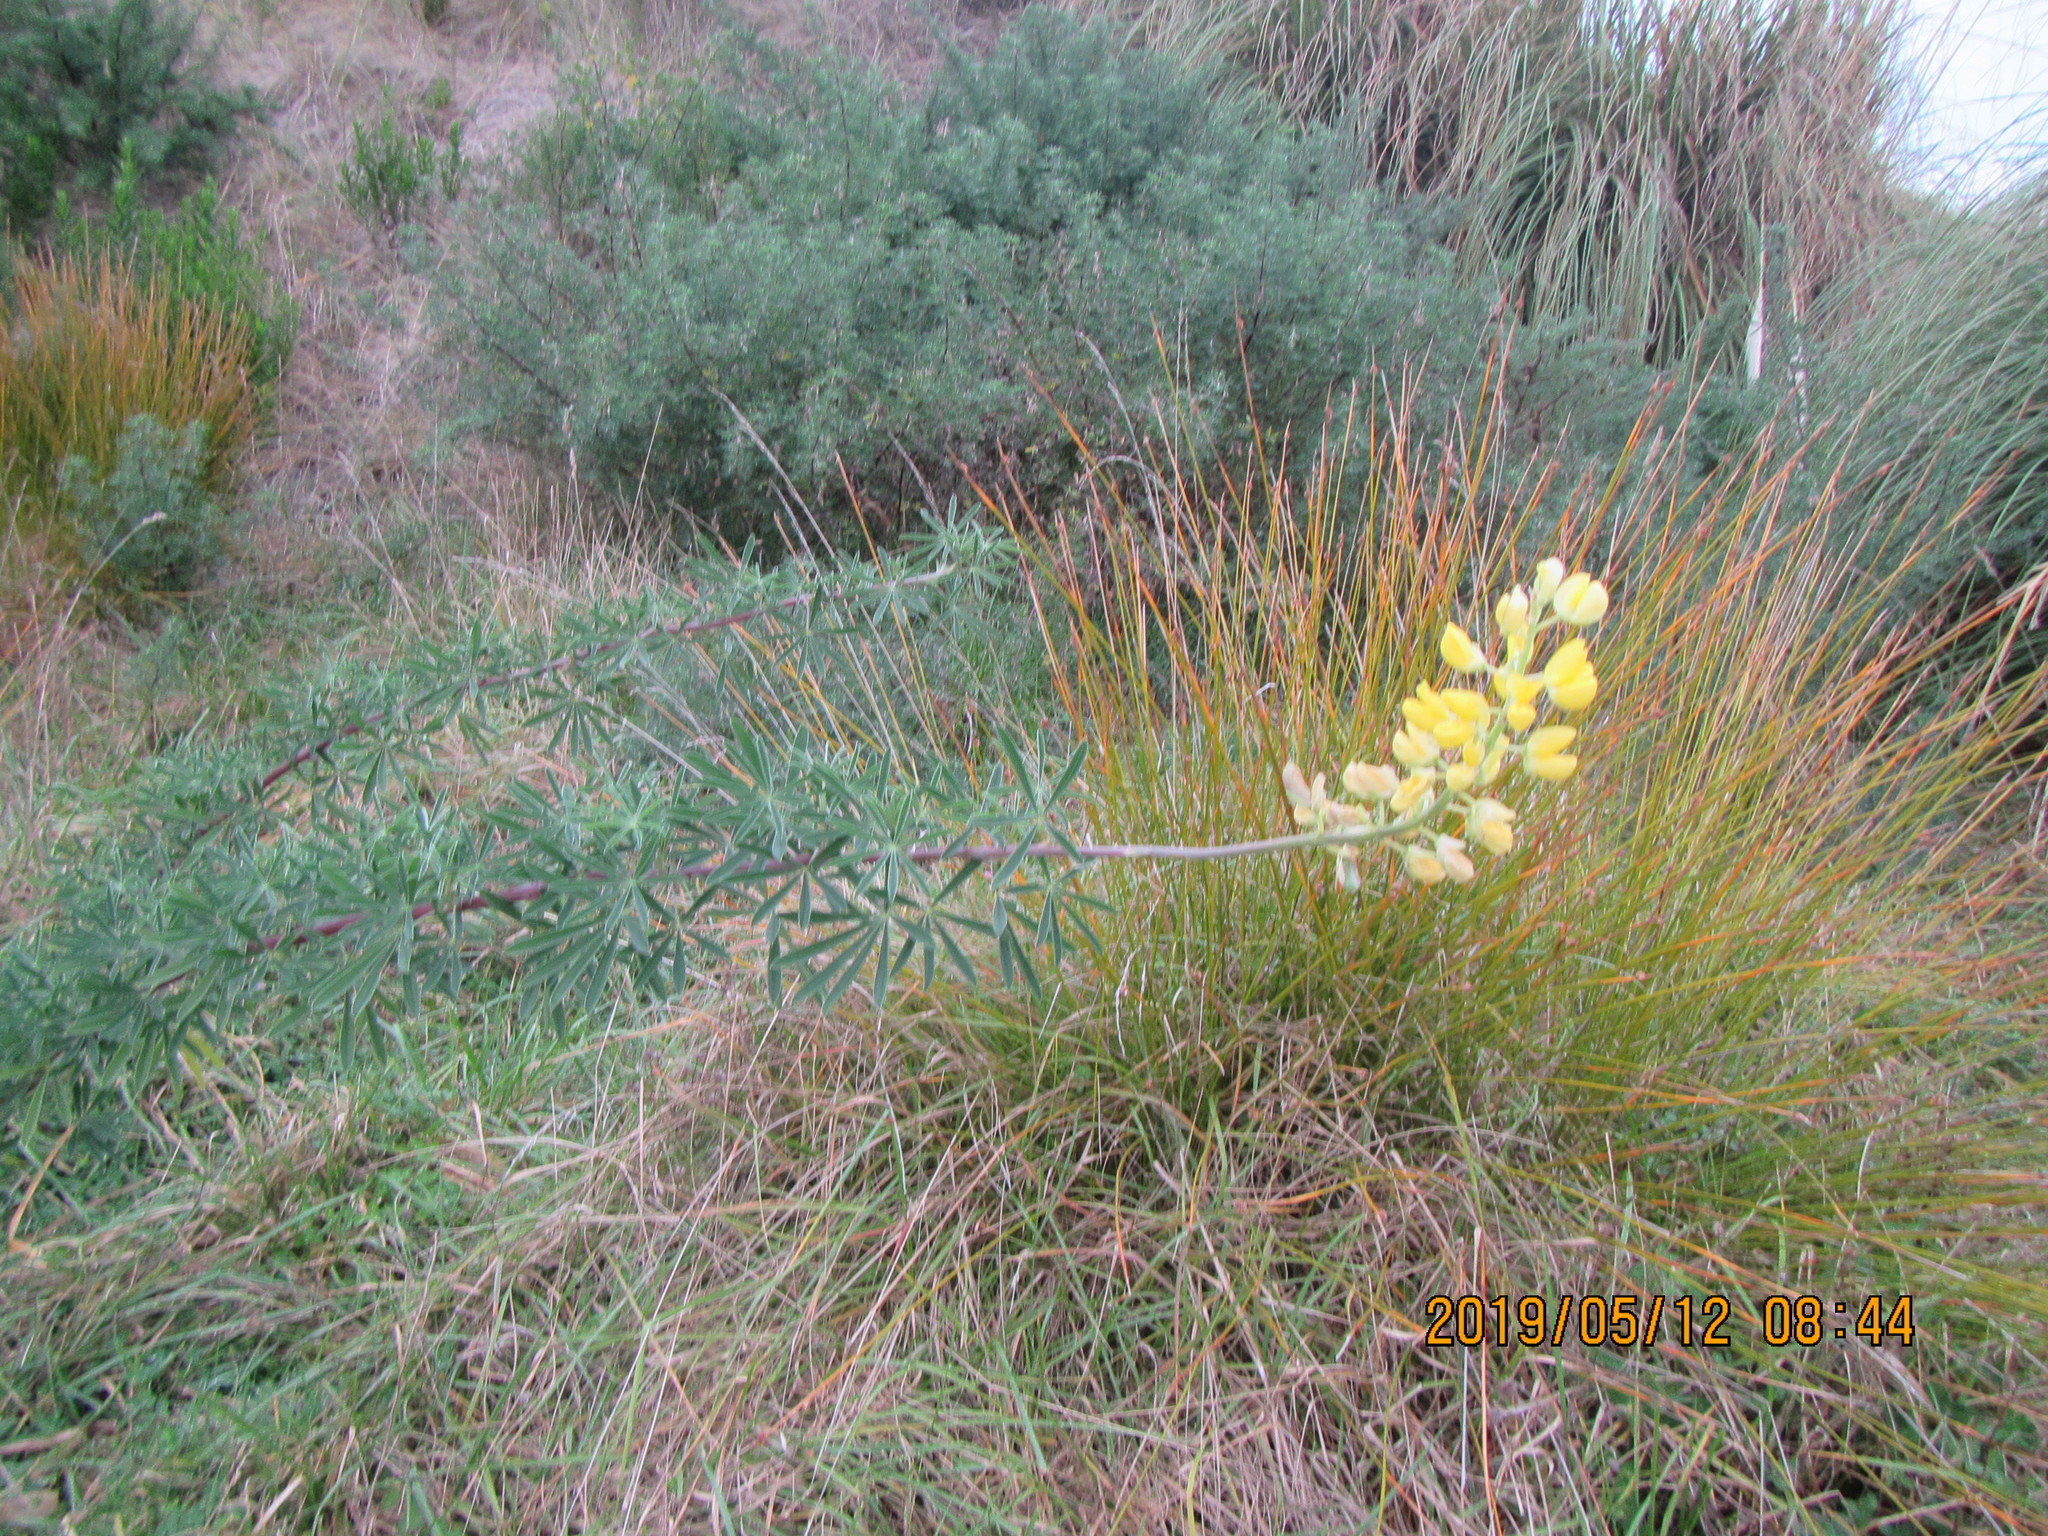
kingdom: Plantae
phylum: Tracheophyta
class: Magnoliopsida
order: Fabales
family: Fabaceae
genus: Lupinus
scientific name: Lupinus arboreus
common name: Yellow bush lupine
